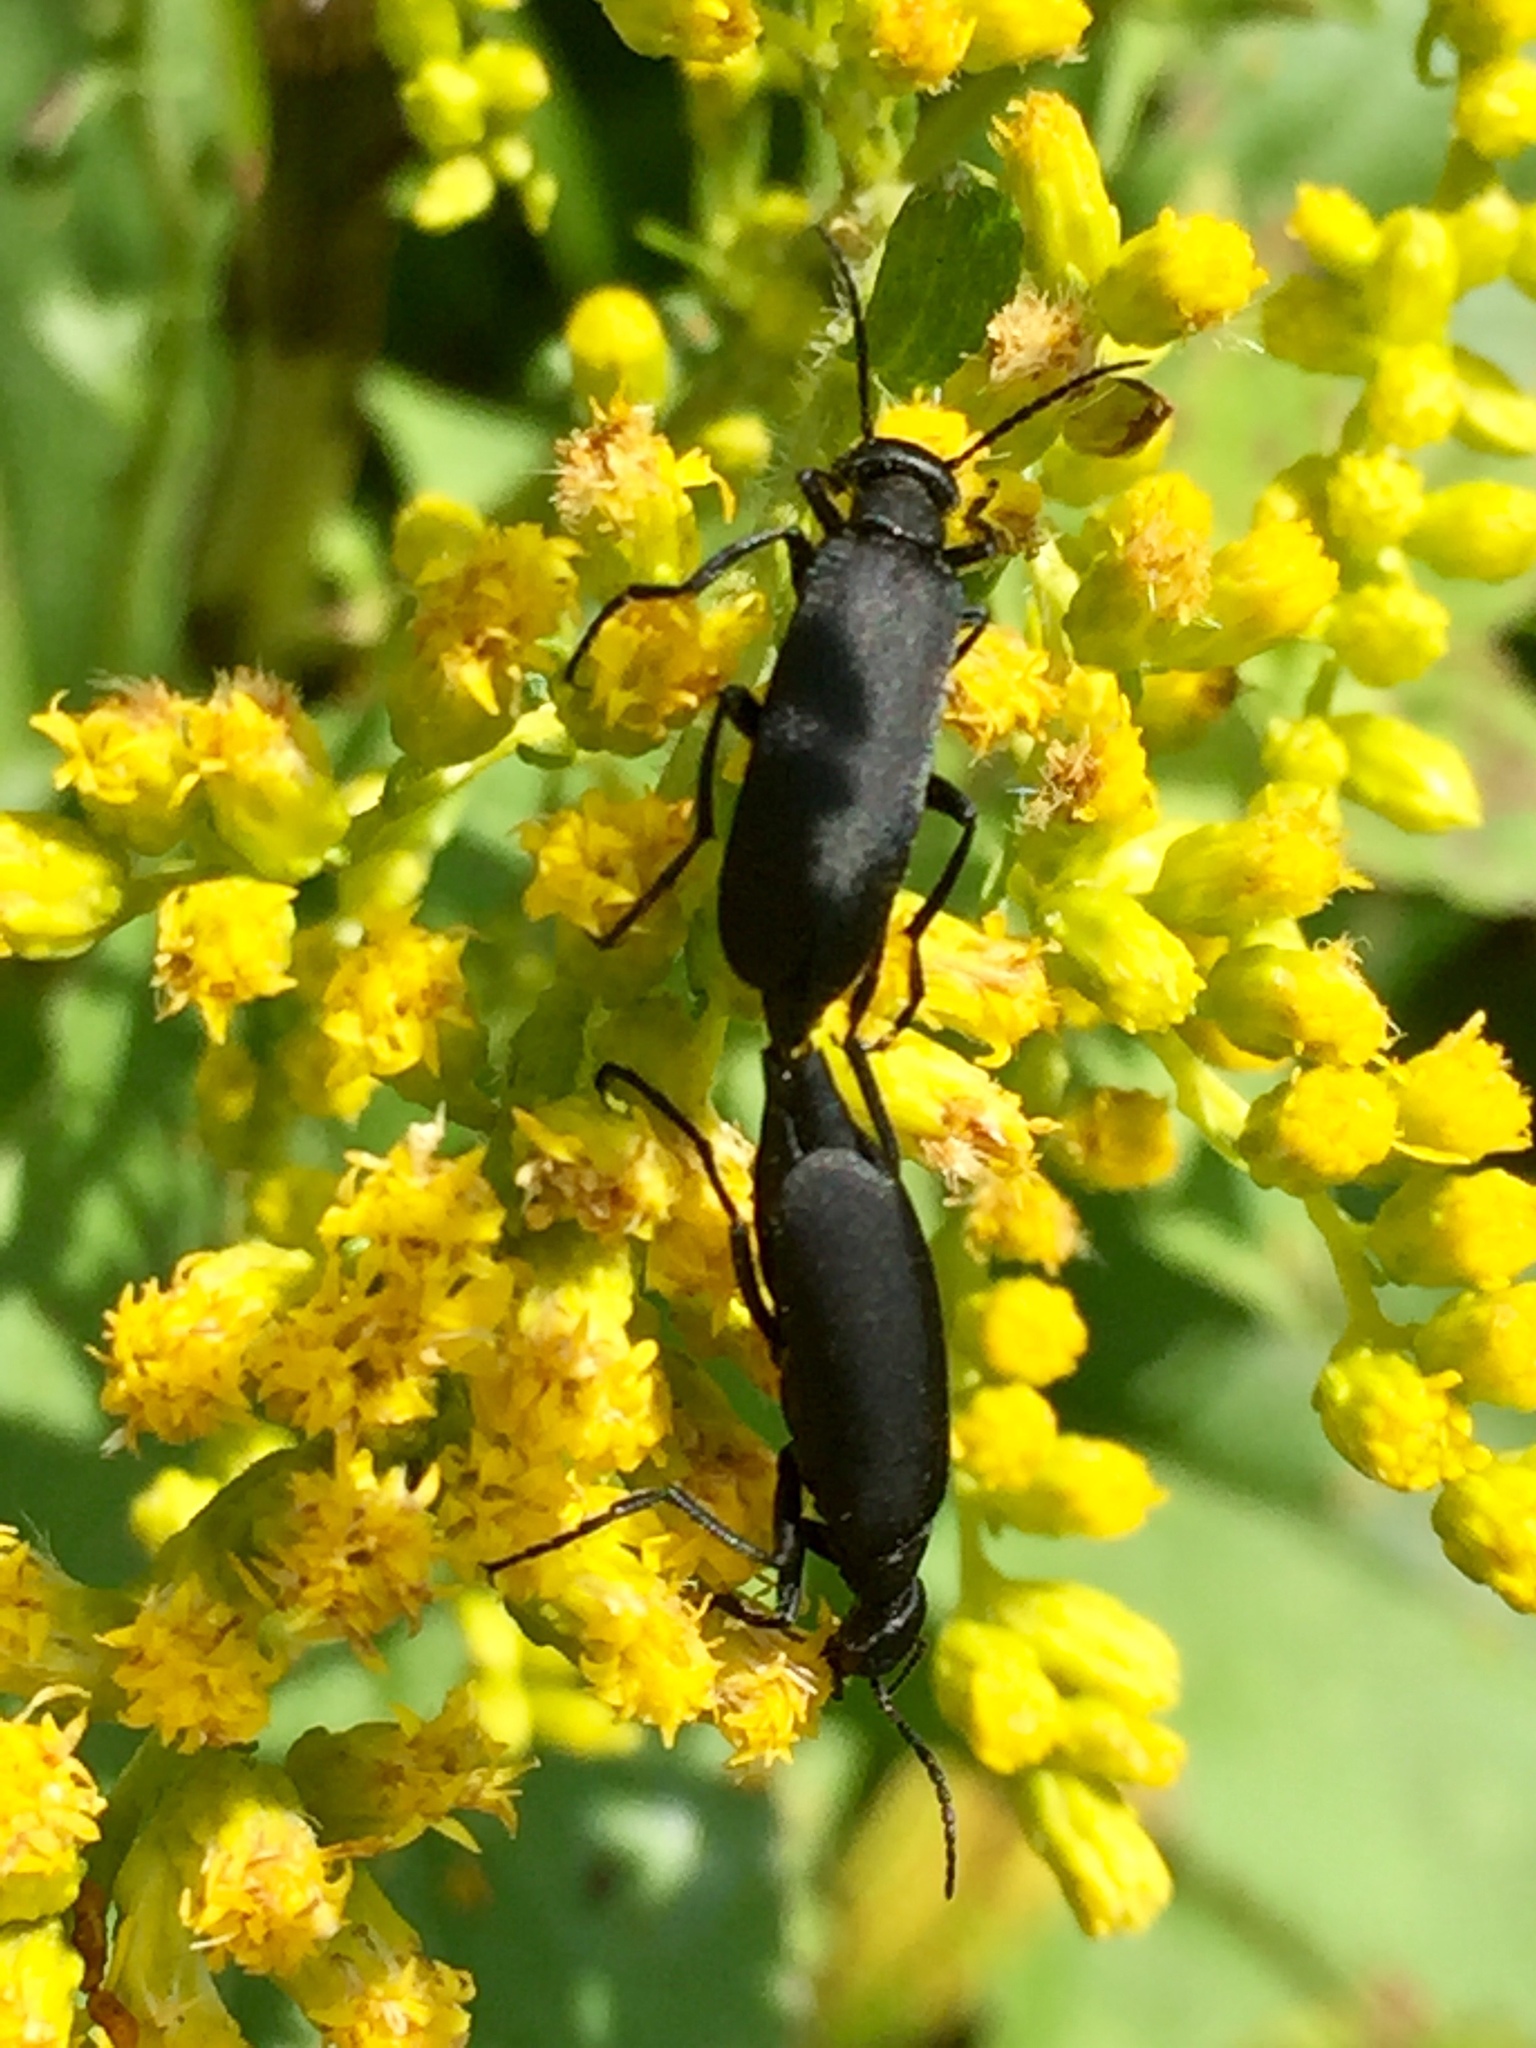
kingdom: Animalia
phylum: Arthropoda
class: Insecta
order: Coleoptera
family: Meloidae
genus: Epicauta
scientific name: Epicauta pensylvanica
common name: Black blister beetle
